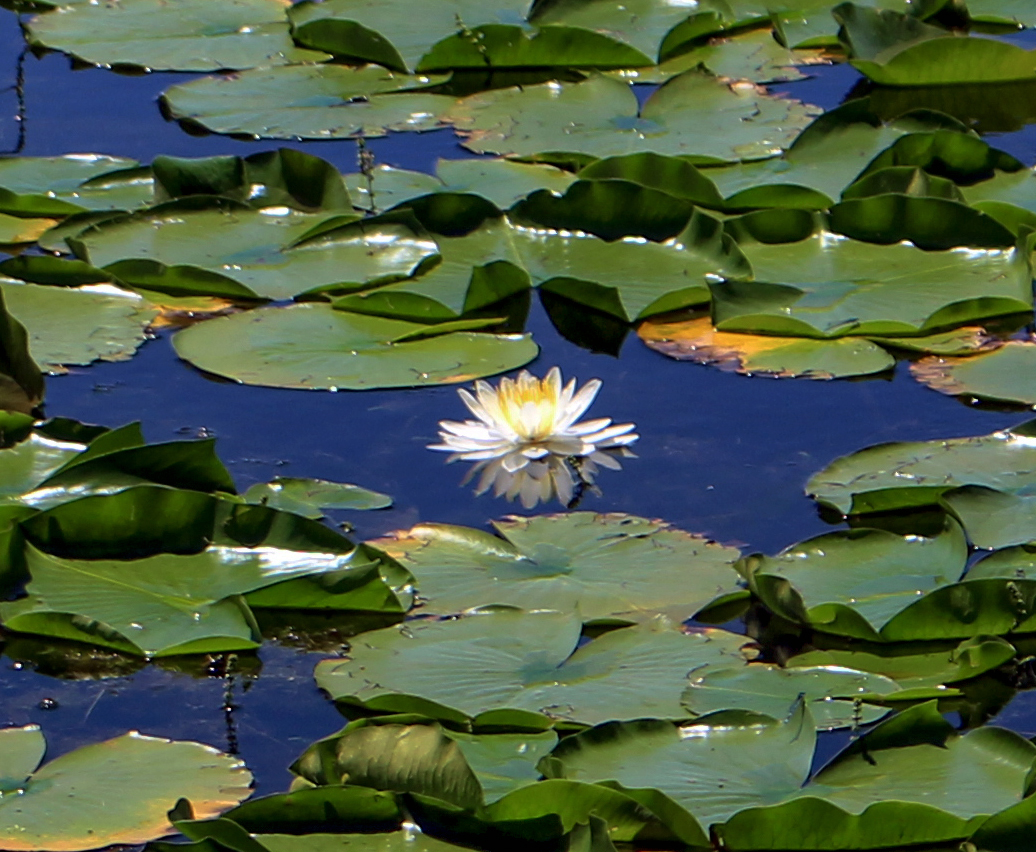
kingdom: Plantae
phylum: Tracheophyta
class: Magnoliopsida
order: Nymphaeales
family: Nymphaeaceae
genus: Nymphaea
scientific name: Nymphaea odorata
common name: Fragrant water-lily
